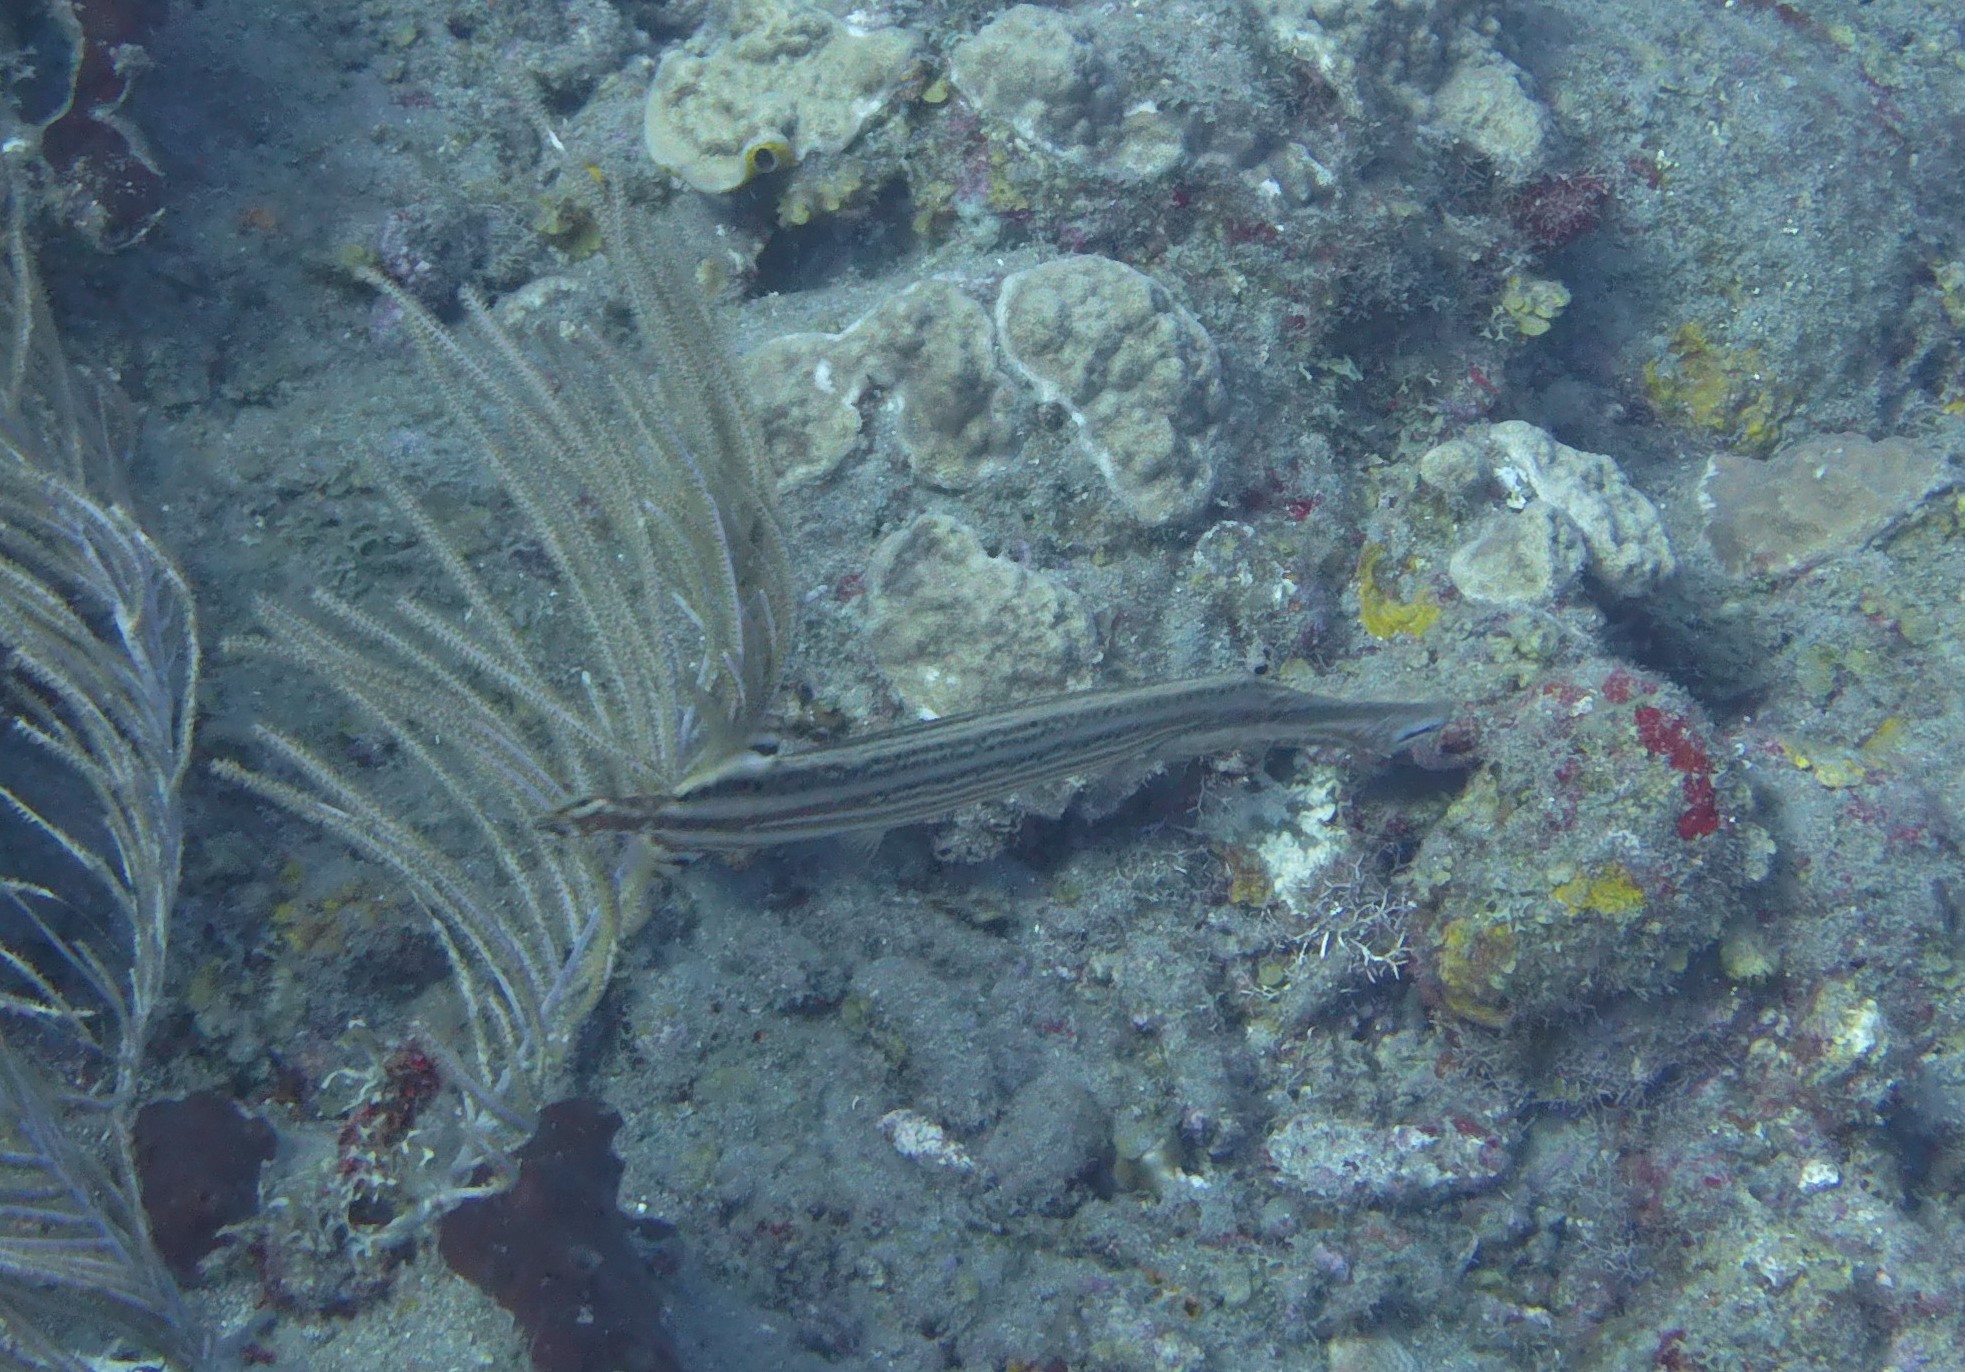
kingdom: Animalia
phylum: Chordata
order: Syngnathiformes
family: Aulostomidae
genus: Aulostomus
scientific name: Aulostomus maculatus
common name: West atlantic trumpetfish
